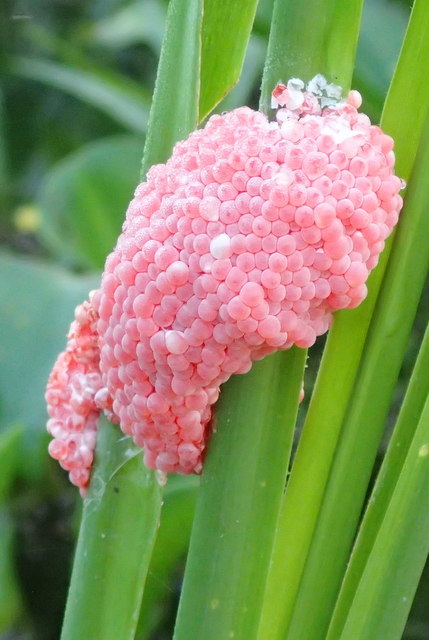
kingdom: Animalia
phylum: Mollusca
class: Gastropoda
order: Architaenioglossa
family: Ampullariidae
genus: Pomacea
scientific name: Pomacea maculata
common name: Giant applesnail
